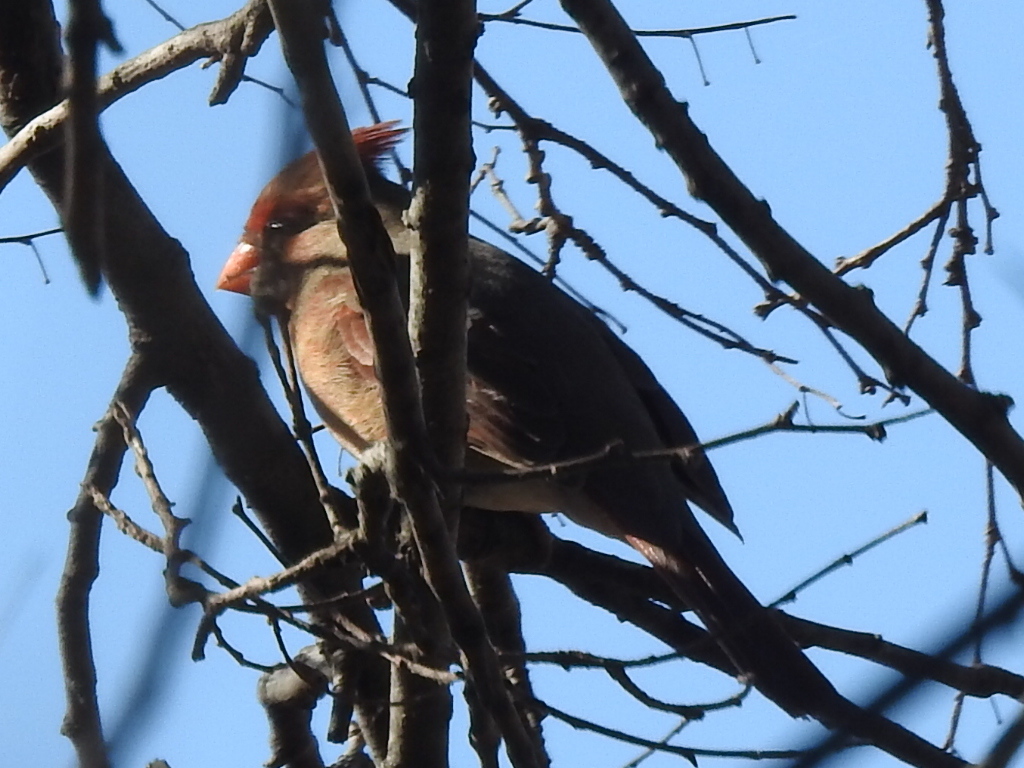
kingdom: Animalia
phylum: Chordata
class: Aves
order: Passeriformes
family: Cardinalidae
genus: Cardinalis
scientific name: Cardinalis cardinalis
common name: Northern cardinal
